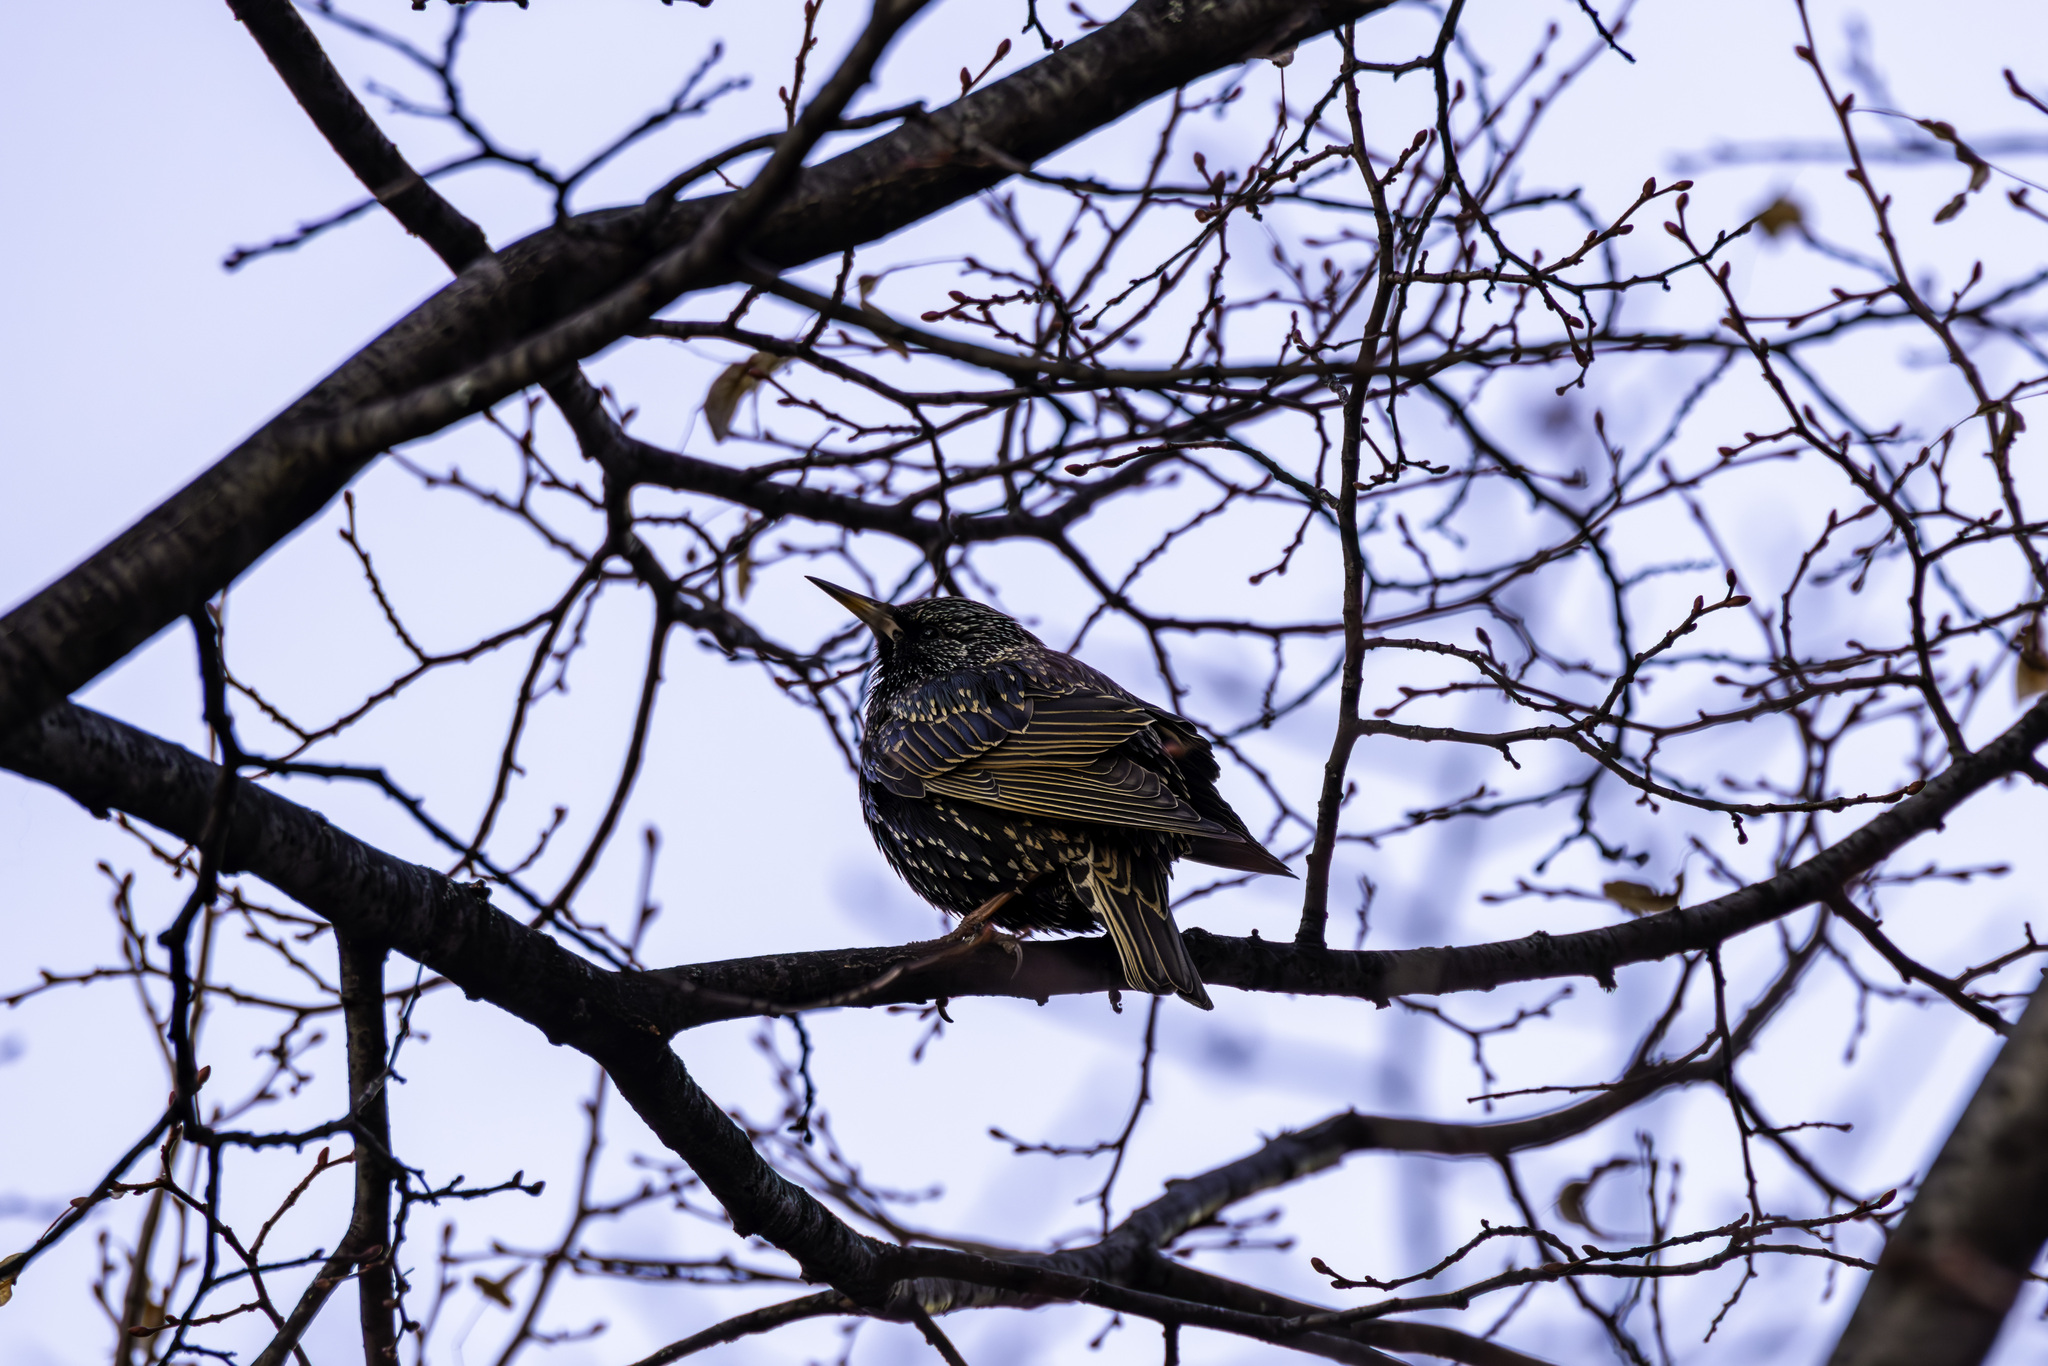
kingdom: Animalia
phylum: Chordata
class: Aves
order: Passeriformes
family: Sturnidae
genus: Sturnus
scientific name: Sturnus vulgaris
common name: Common starling
